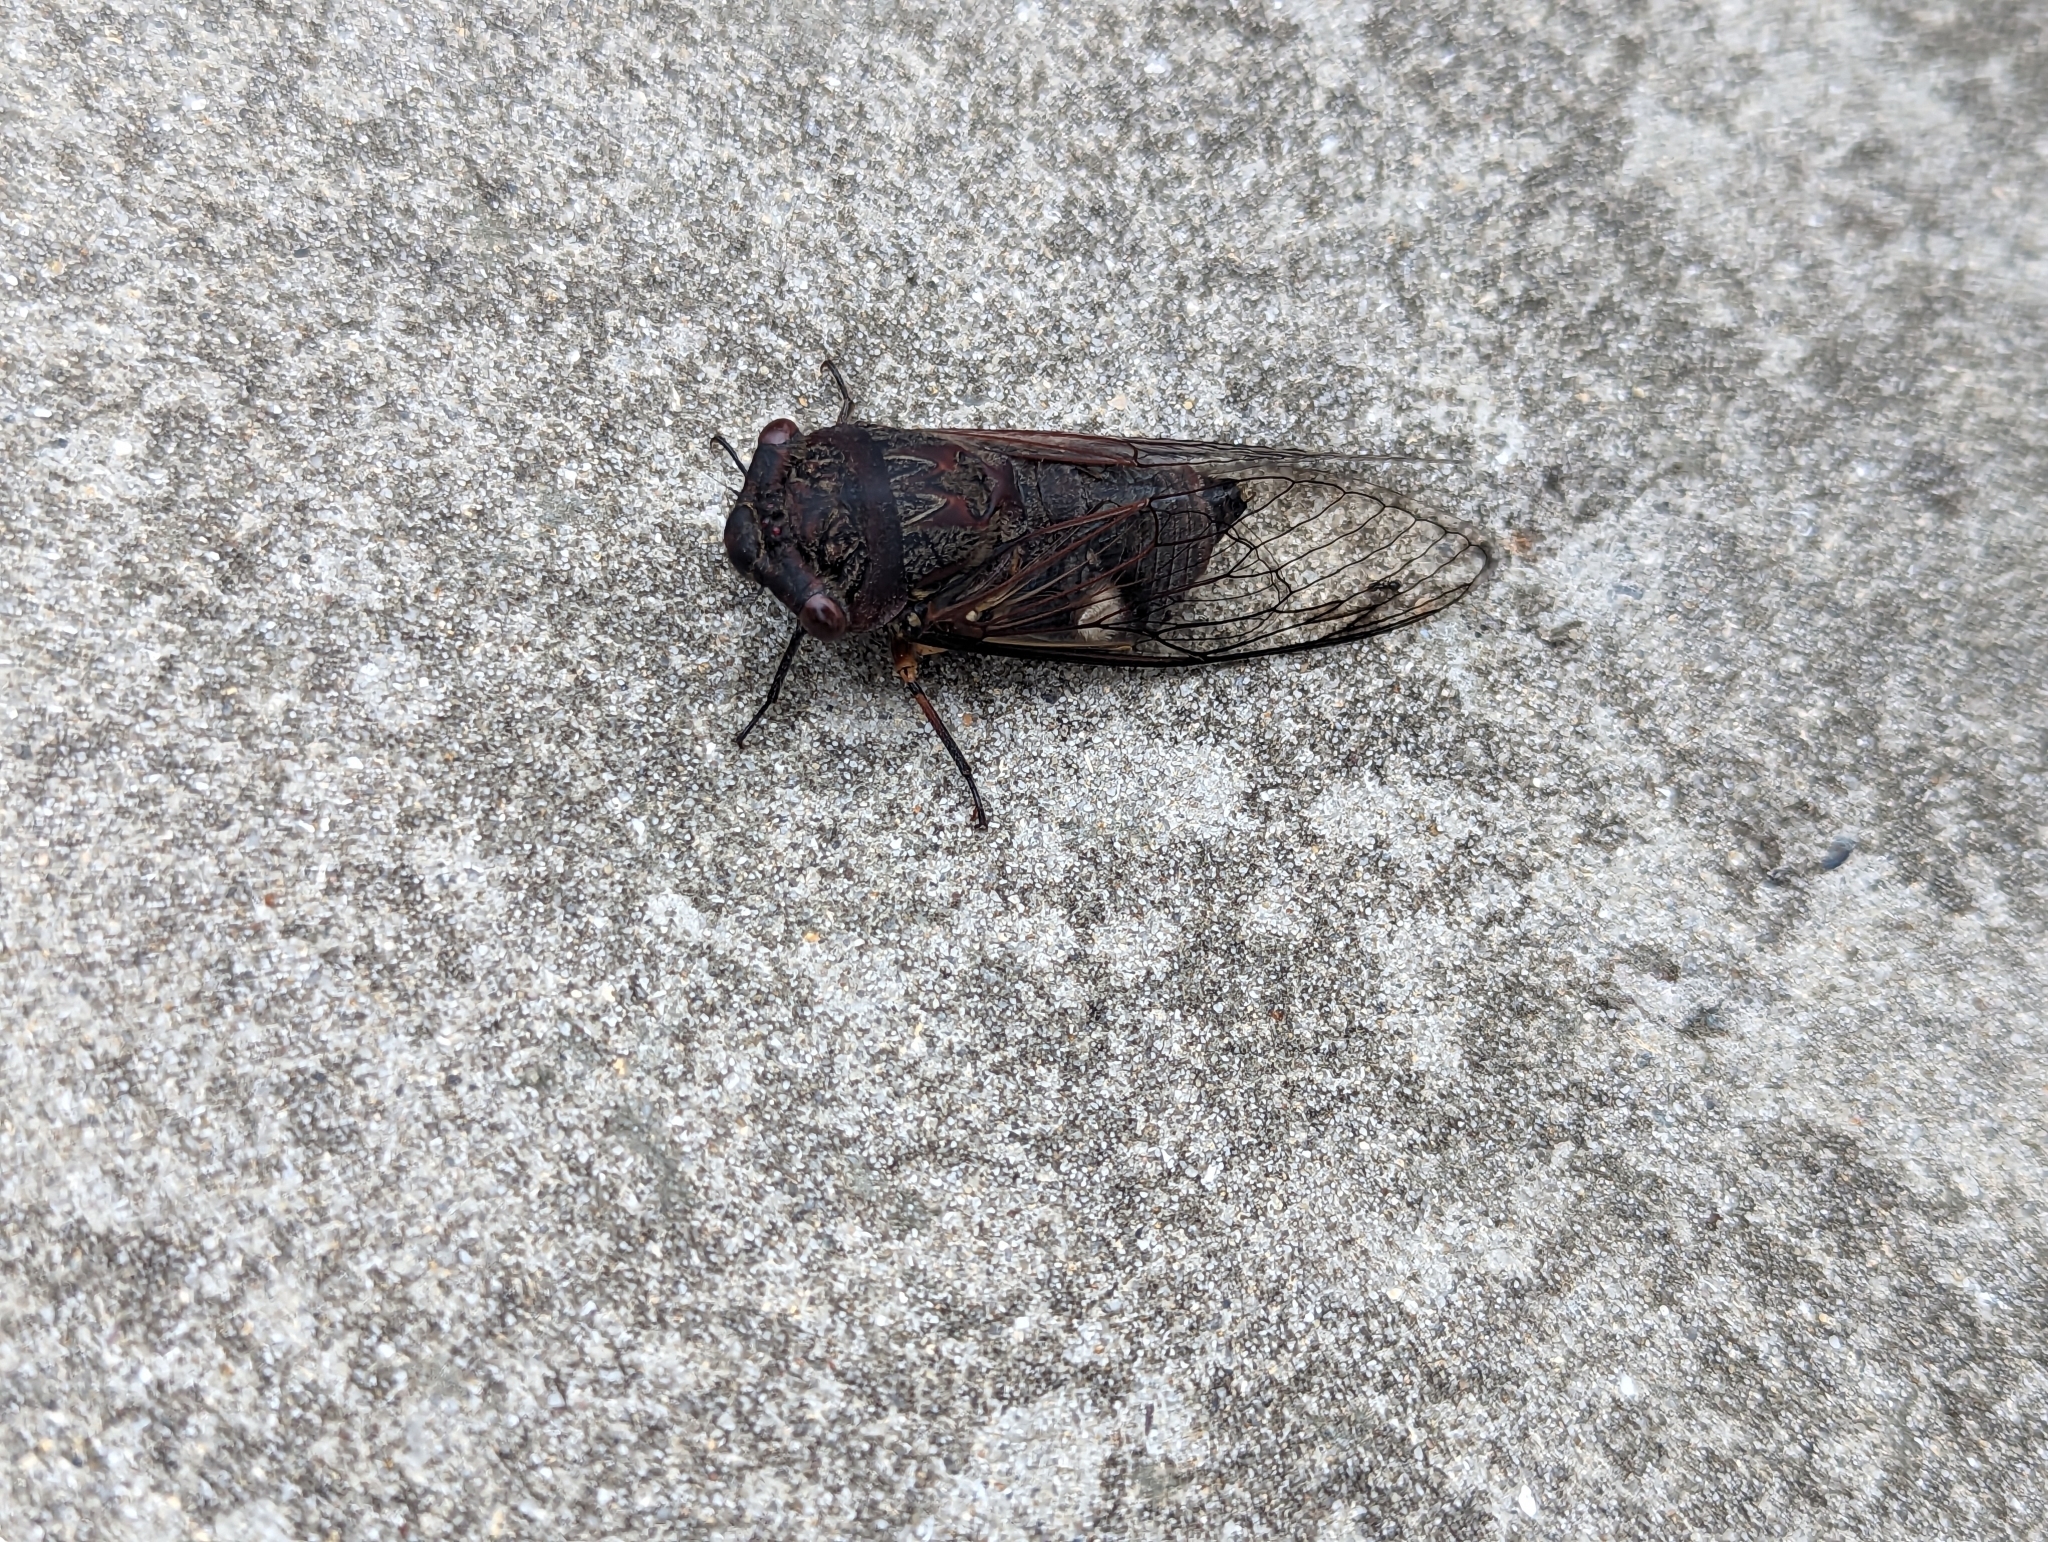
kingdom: Animalia
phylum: Arthropoda
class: Insecta
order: Hemiptera
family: Cicadidae
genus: Psaltoda
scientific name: Psaltoda plaga
